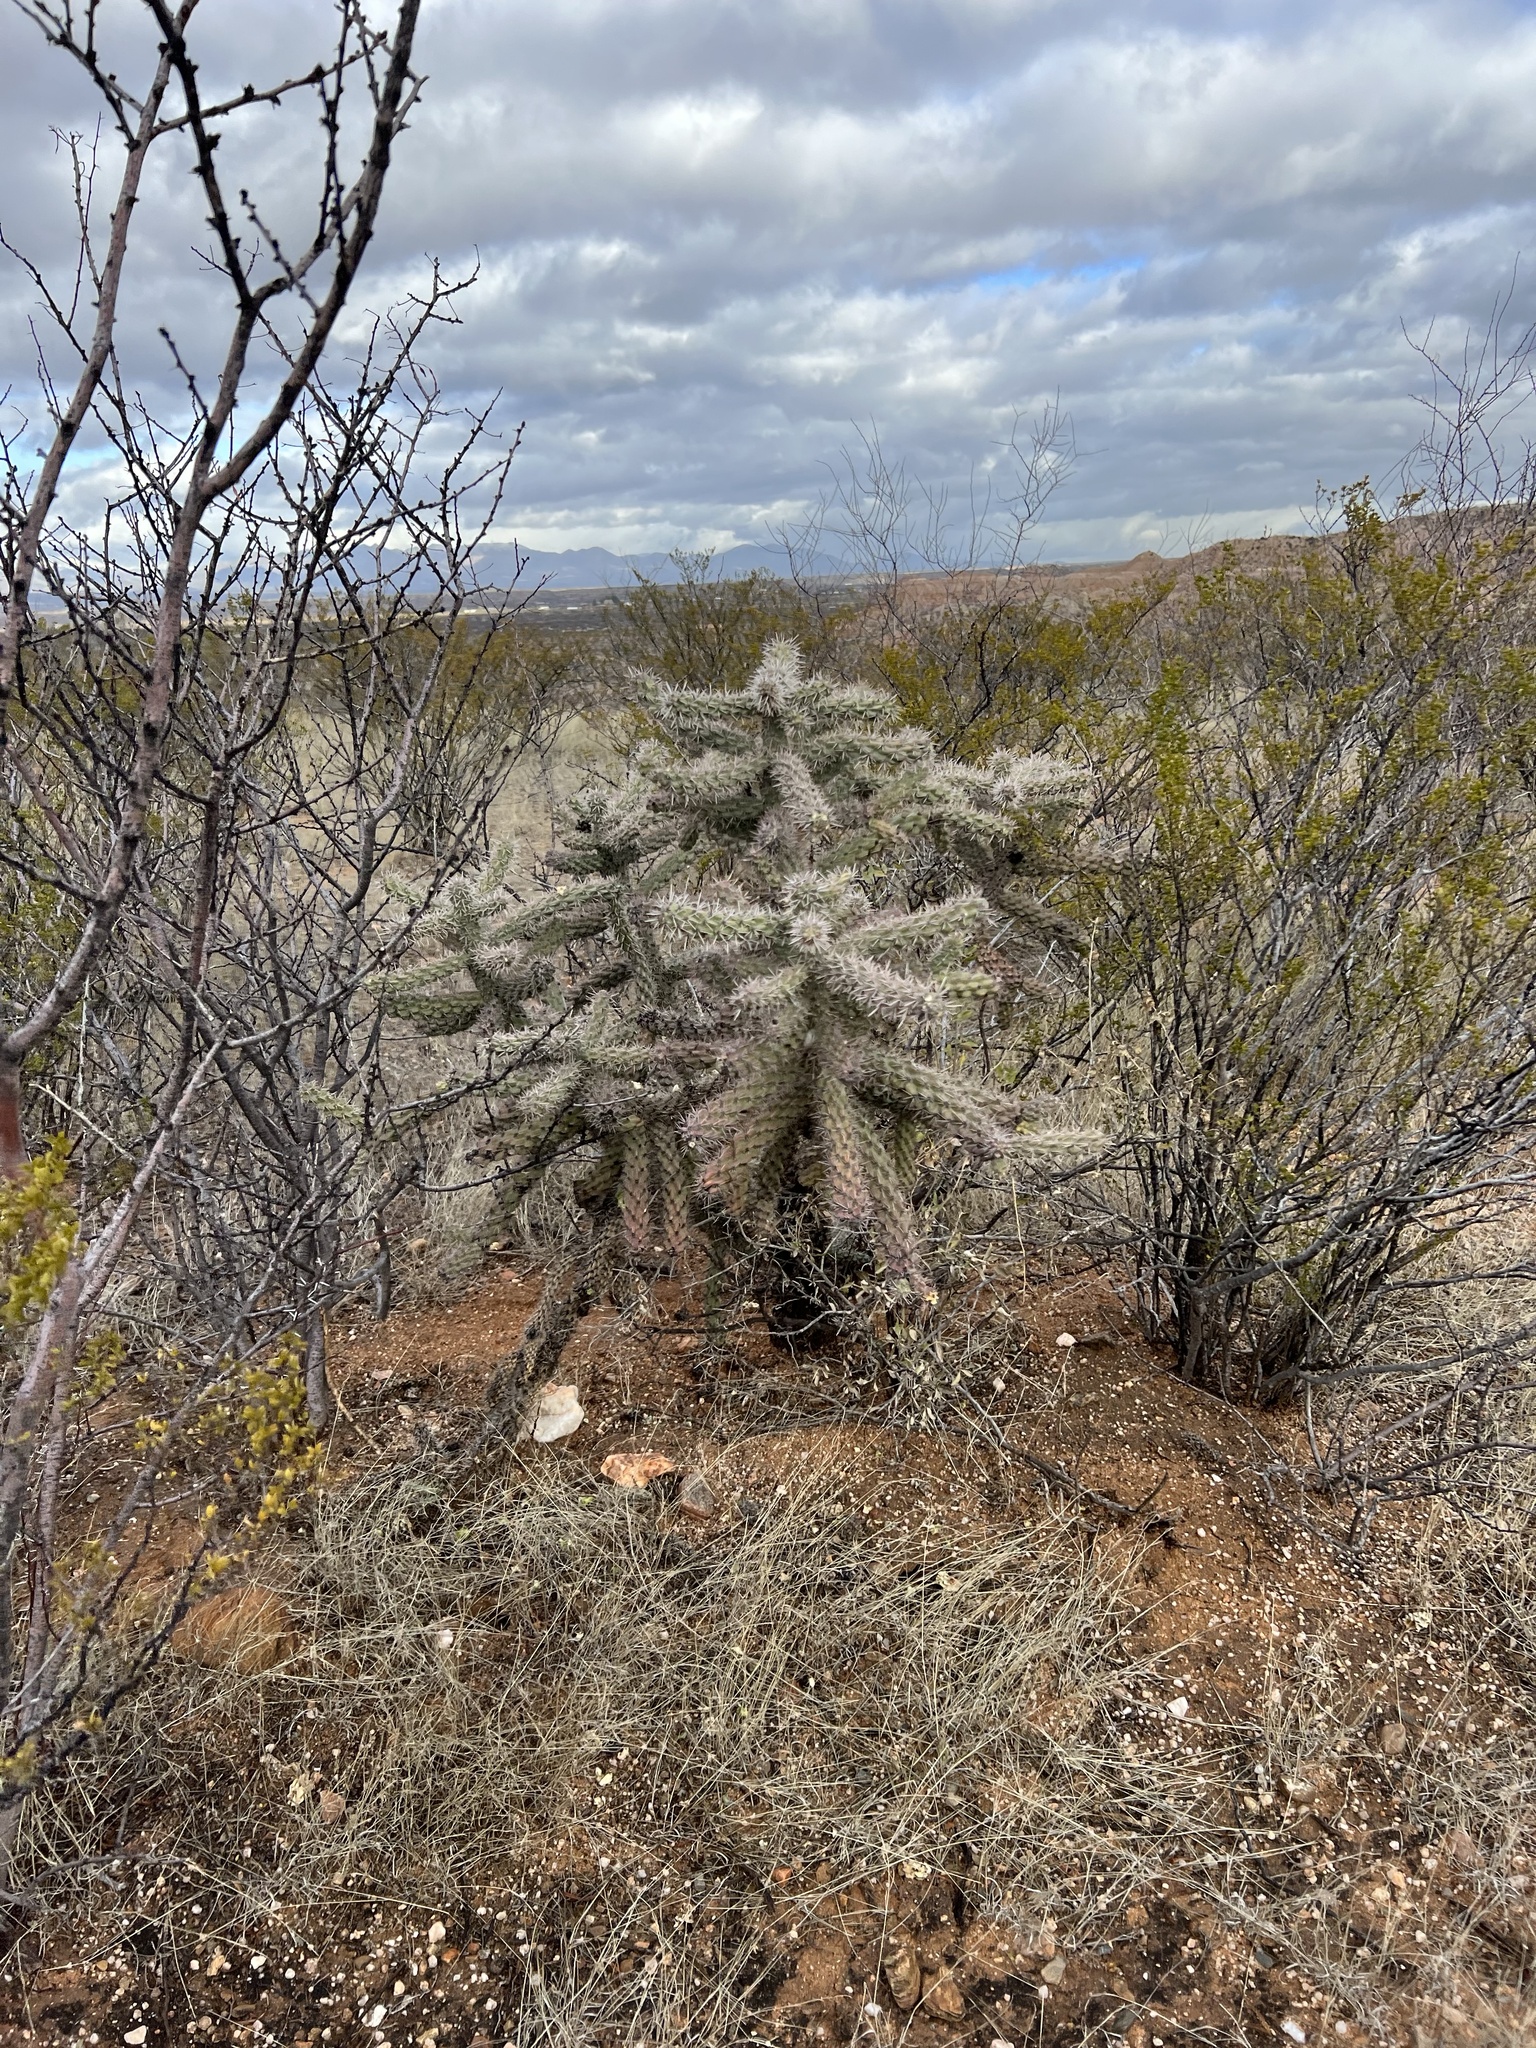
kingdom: Plantae
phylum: Tracheophyta
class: Magnoliopsida
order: Caryophyllales
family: Cactaceae
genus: Cylindropuntia
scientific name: Cylindropuntia imbricata
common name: Candelabrum cactus
